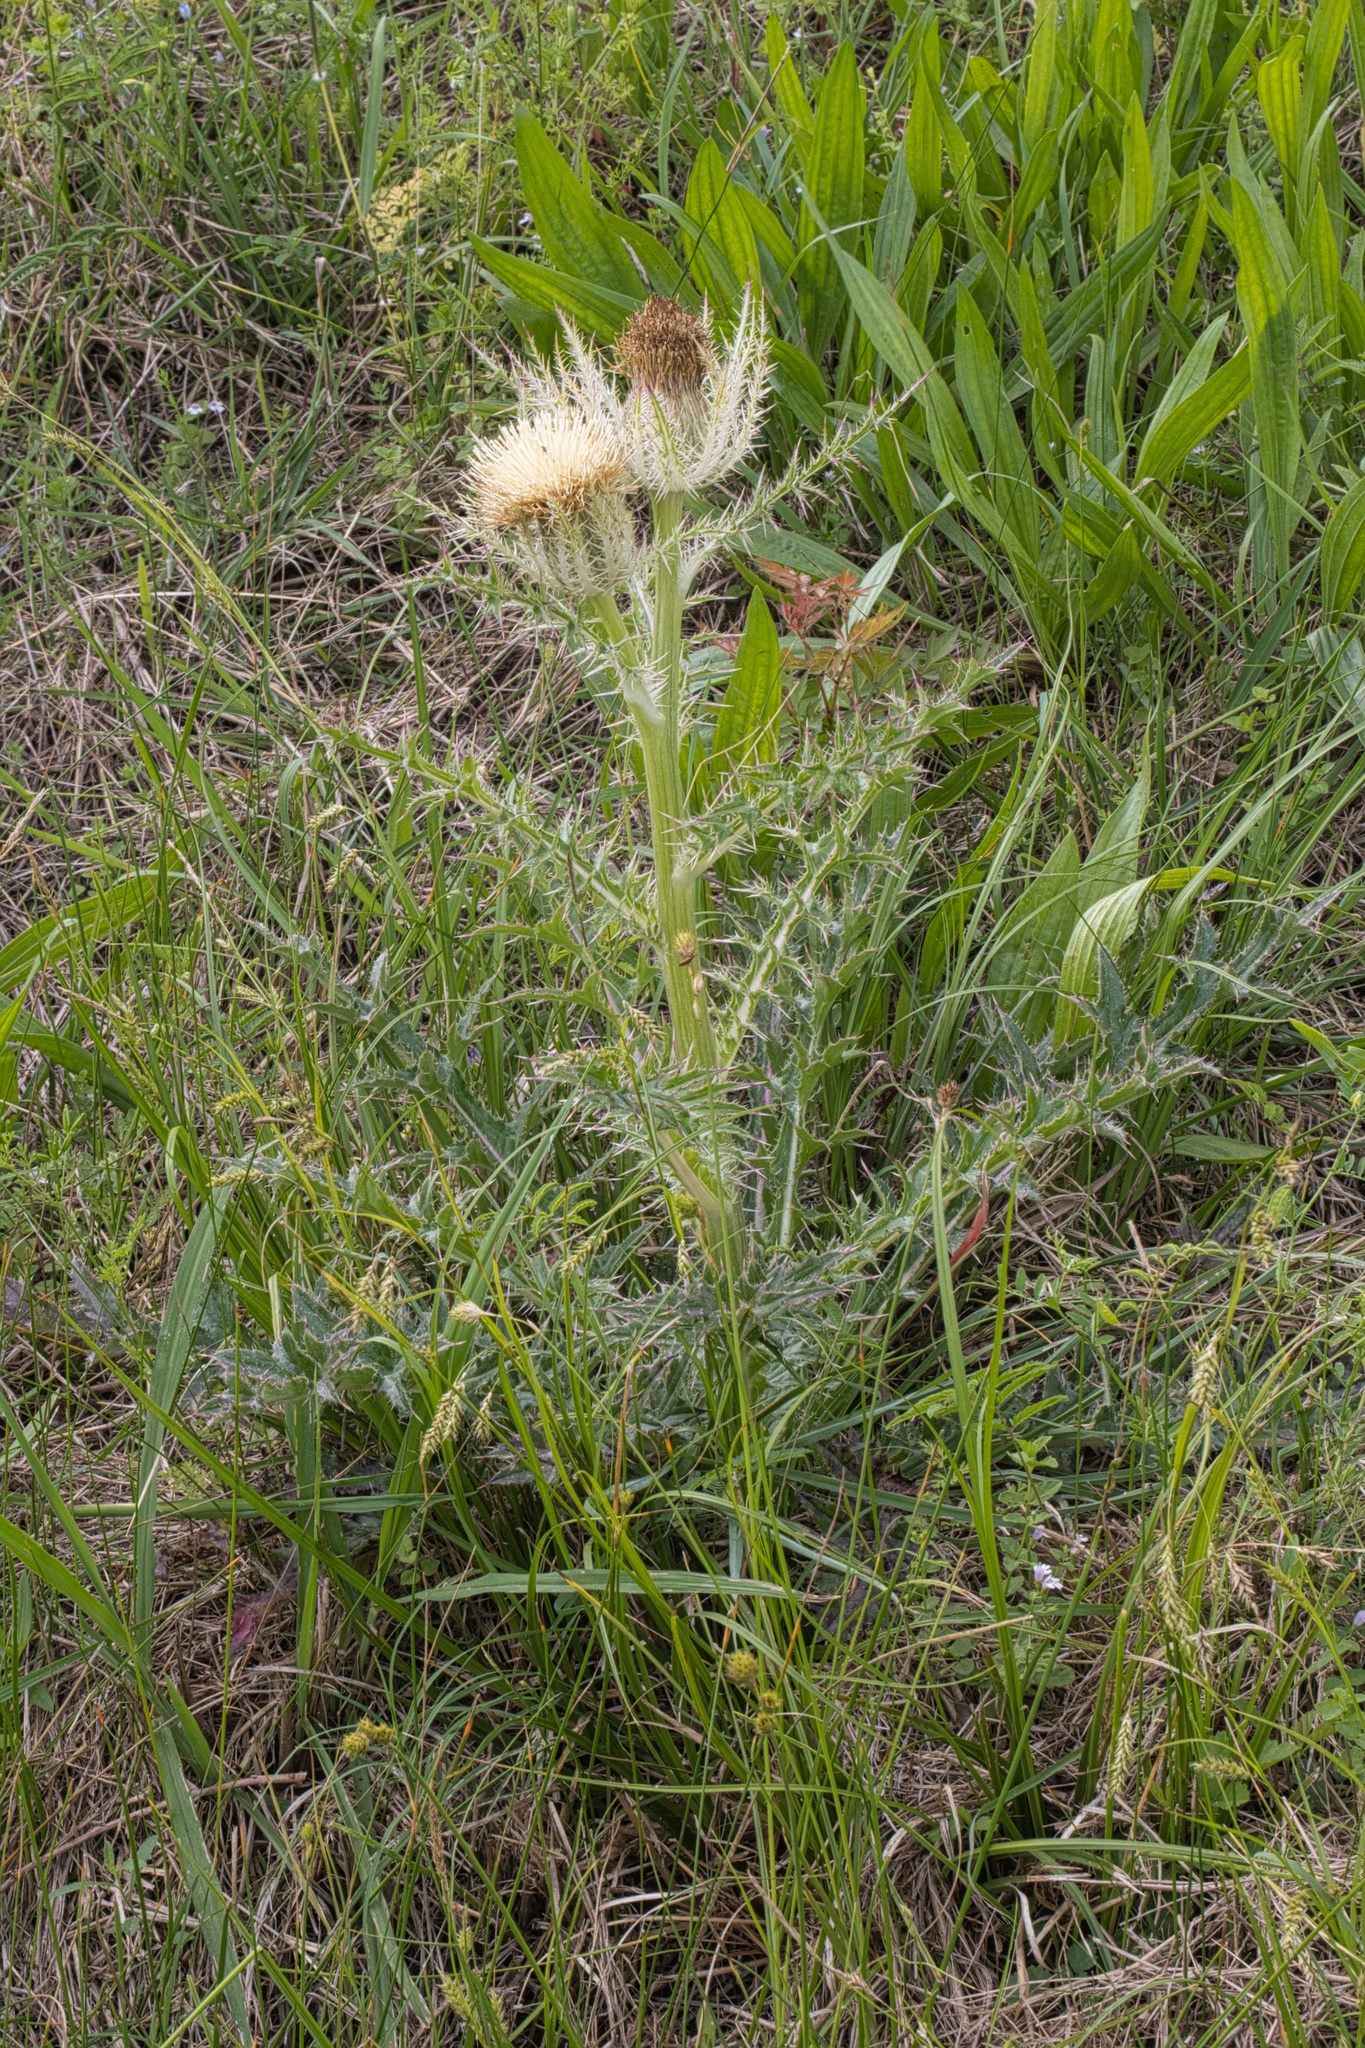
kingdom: Plantae
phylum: Tracheophyta
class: Magnoliopsida
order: Asterales
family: Asteraceae
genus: Cirsium
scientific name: Cirsium horridulum
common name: Bristly thistle
